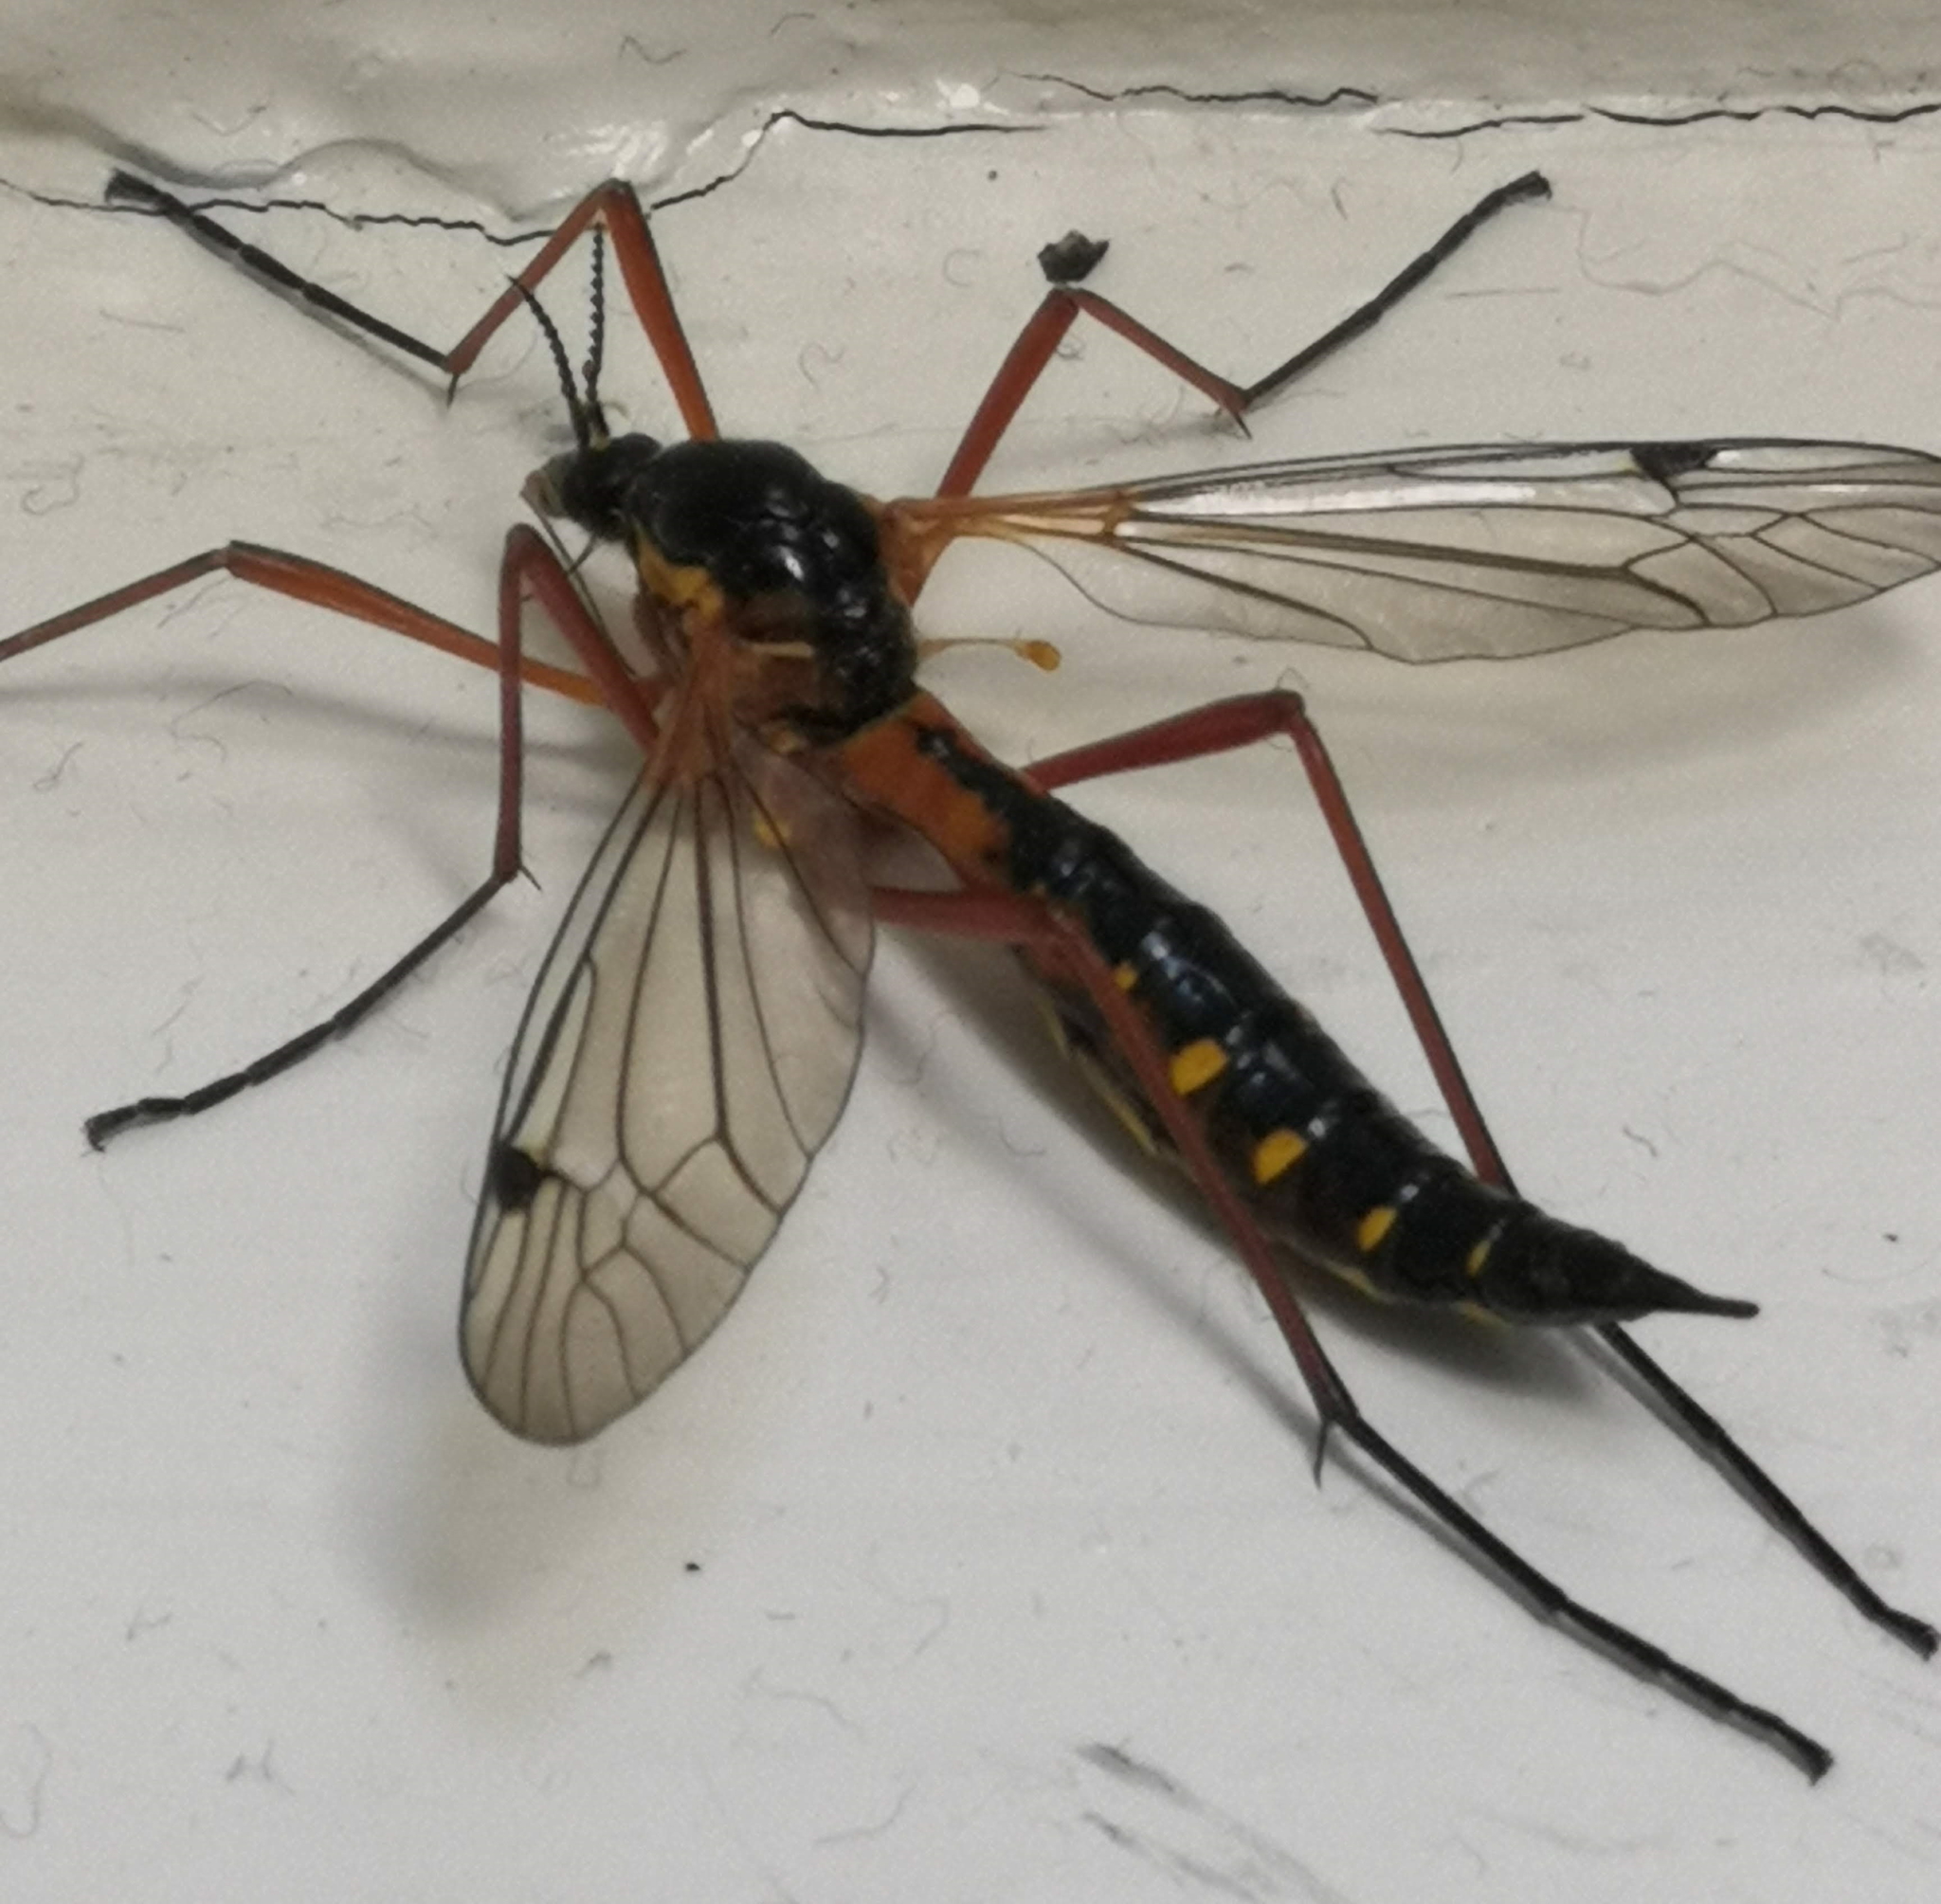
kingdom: Animalia
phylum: Arthropoda
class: Insecta
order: Diptera
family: Tipulidae
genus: Ctenophora
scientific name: Ctenophora pectinicornis
